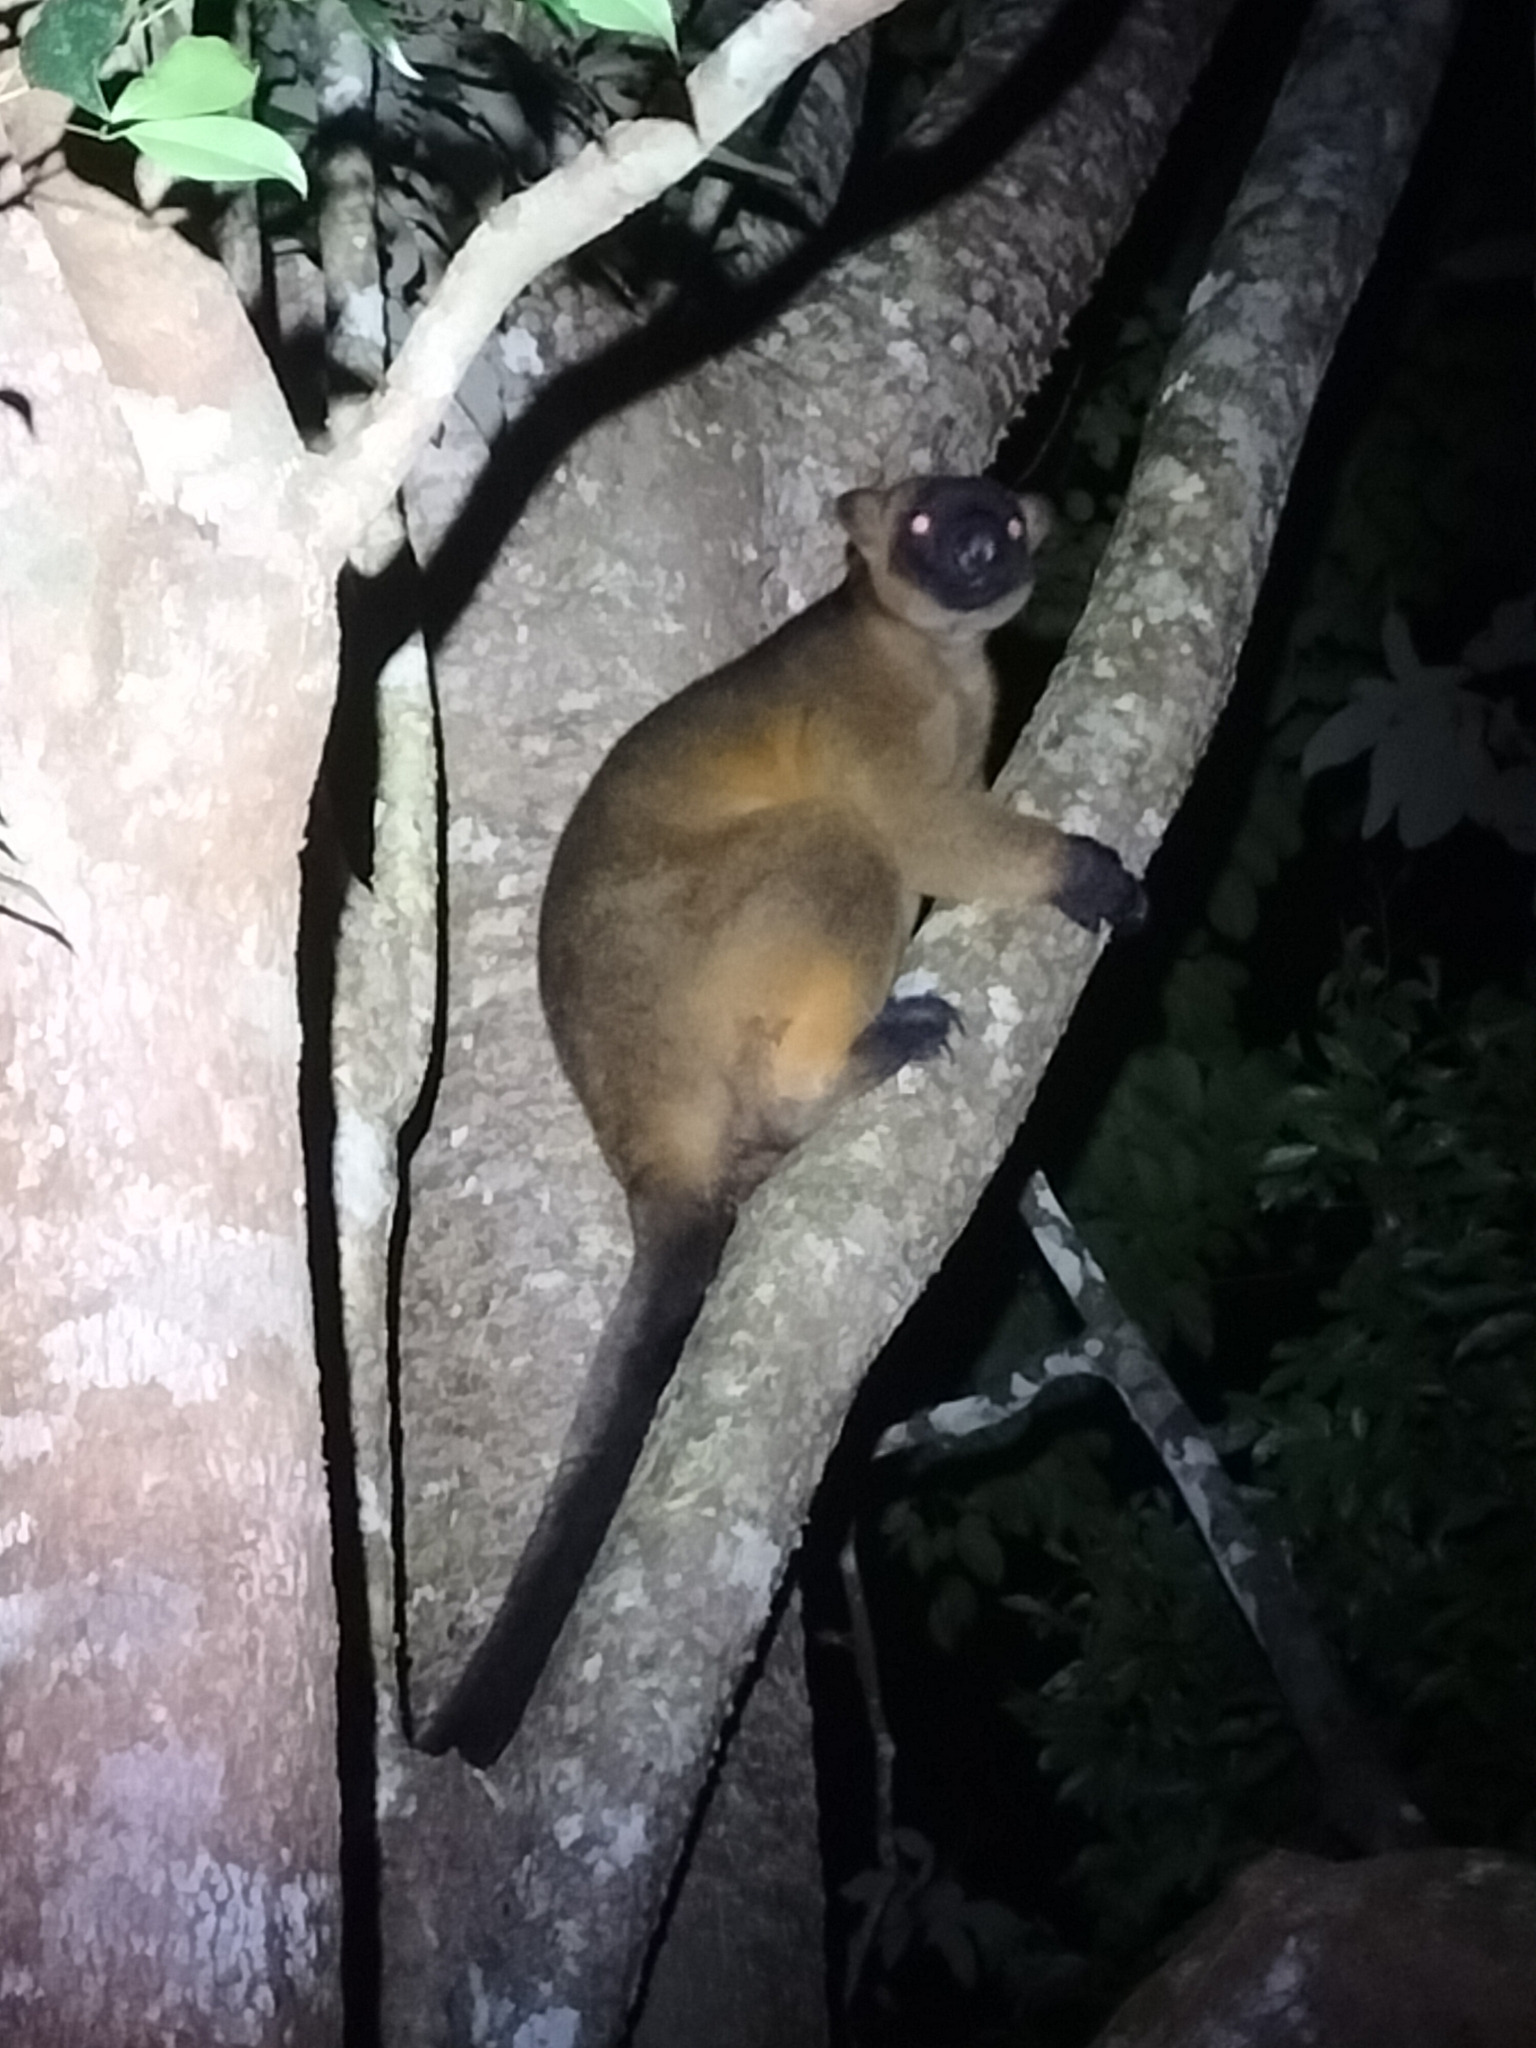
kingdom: Animalia
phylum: Chordata
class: Mammalia
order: Diprotodontia
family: Macropodidae
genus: Dendrolagus
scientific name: Dendrolagus lumholtzi
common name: Lumholtz's tree kangaroo
